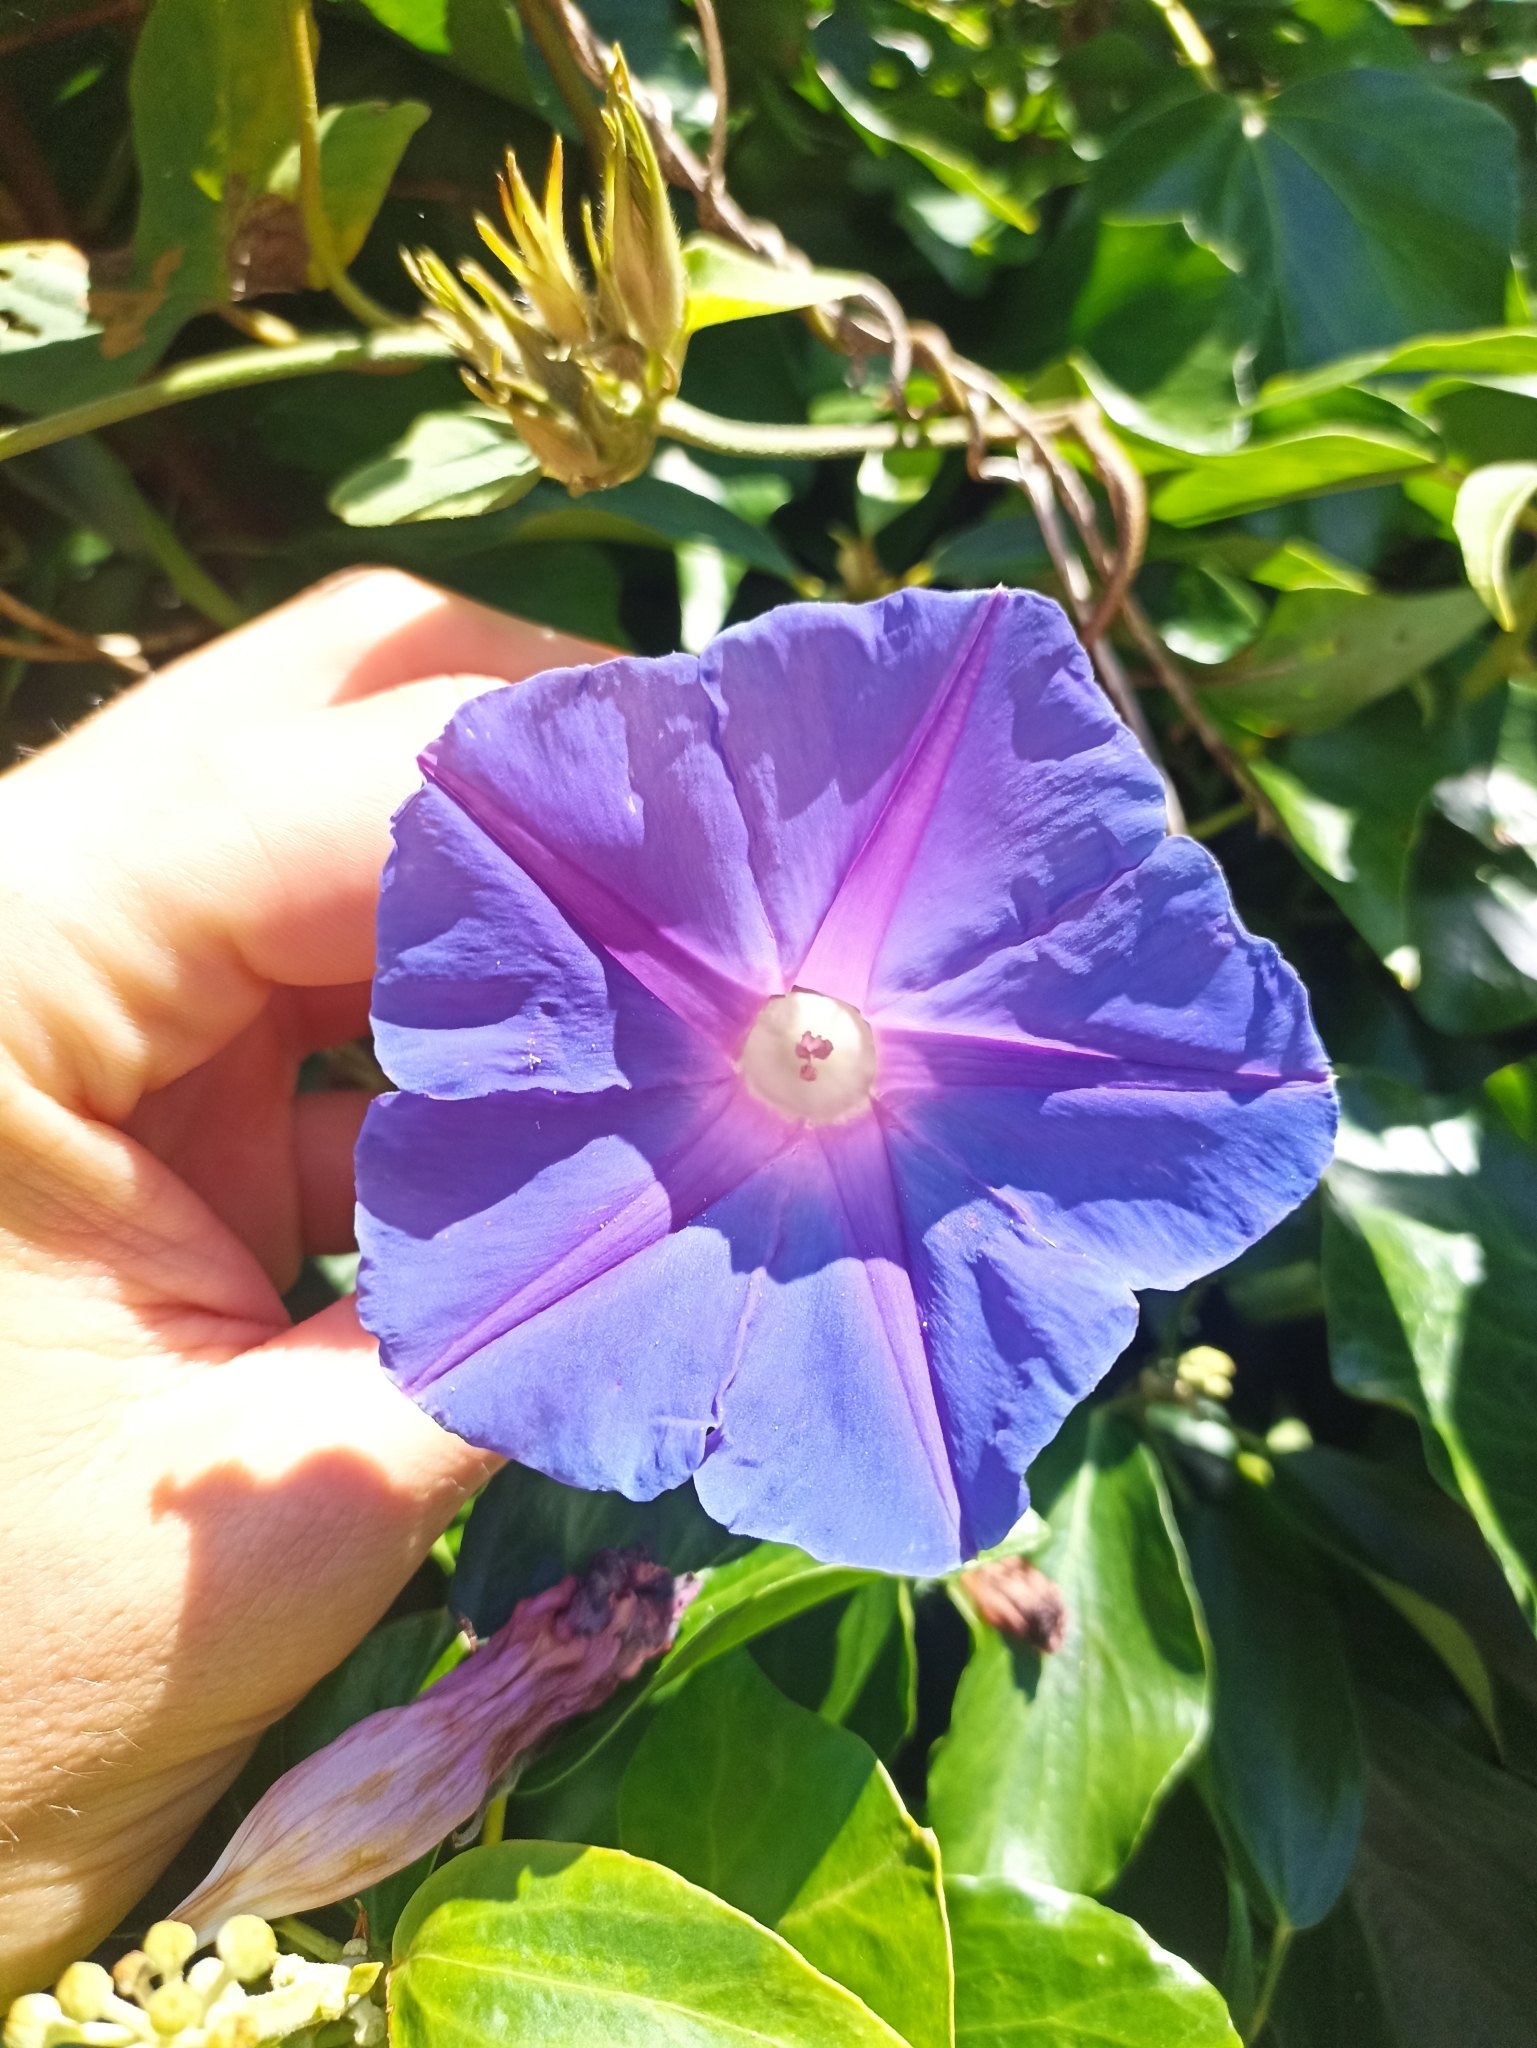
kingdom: Plantae
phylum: Tracheophyta
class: Magnoliopsida
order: Solanales
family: Convolvulaceae
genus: Ipomoea
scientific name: Ipomoea indica
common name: Blue dawnflower
